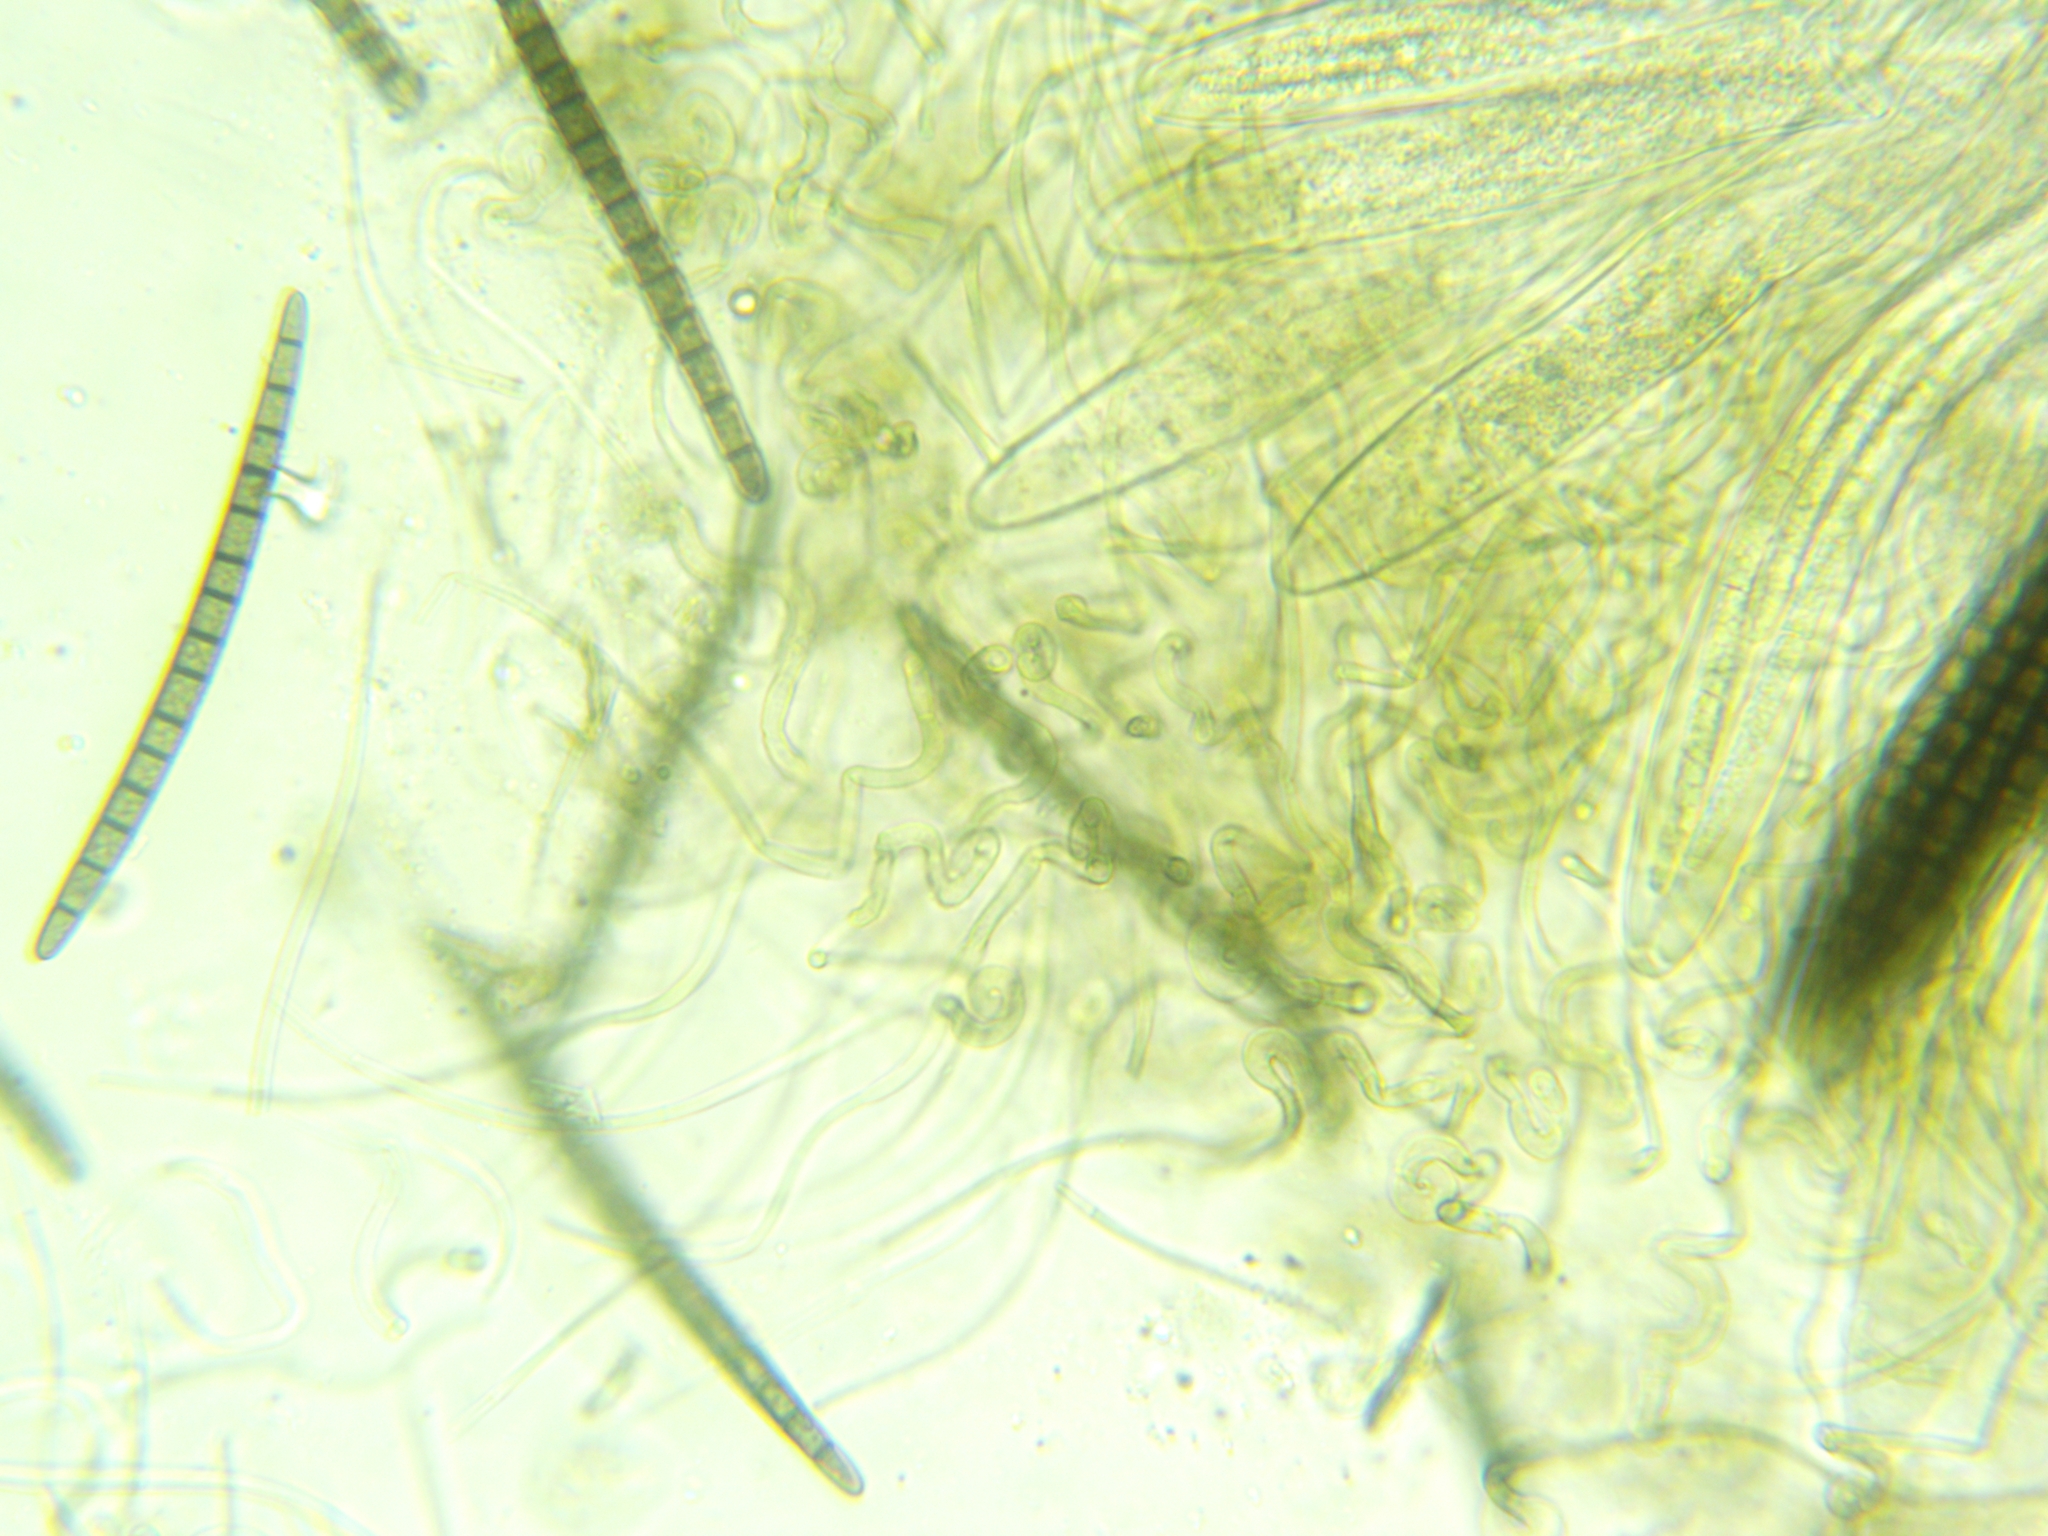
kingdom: Fungi
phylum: Ascomycota
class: Geoglossomycetes
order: Geoglossales
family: Geoglossaceae
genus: Geoglossum
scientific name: Geoglossum difforme
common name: Slimy earthtongue
